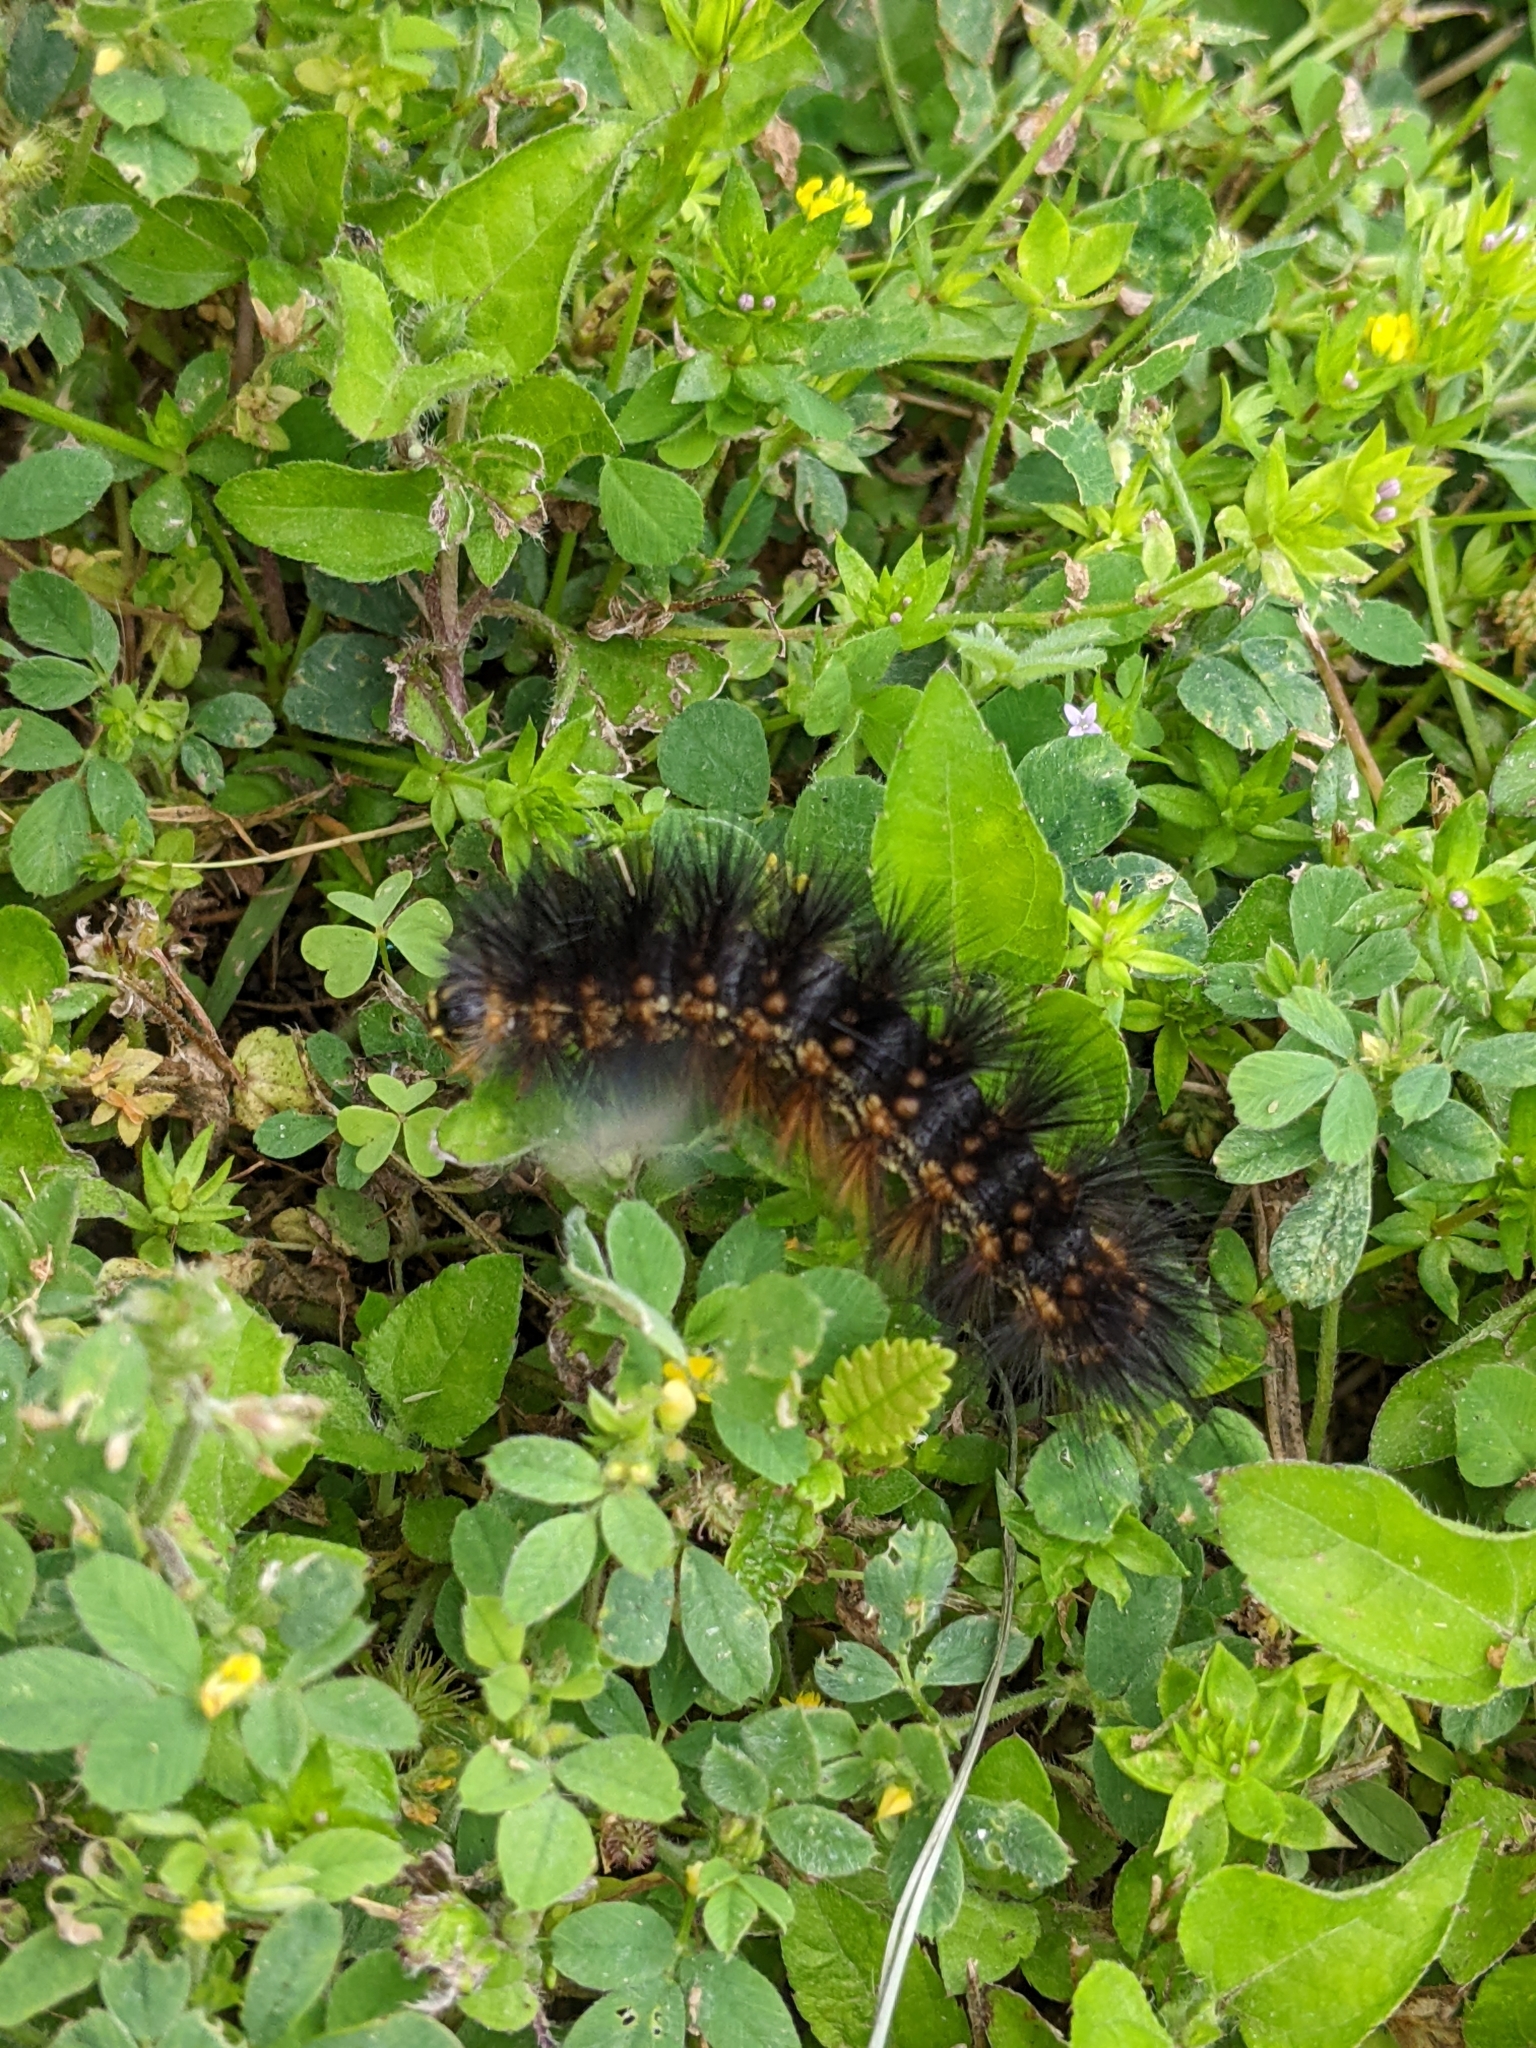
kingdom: Animalia
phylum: Arthropoda
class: Insecta
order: Lepidoptera
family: Erebidae
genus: Estigmene
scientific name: Estigmene acrea
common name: Salt marsh moth
